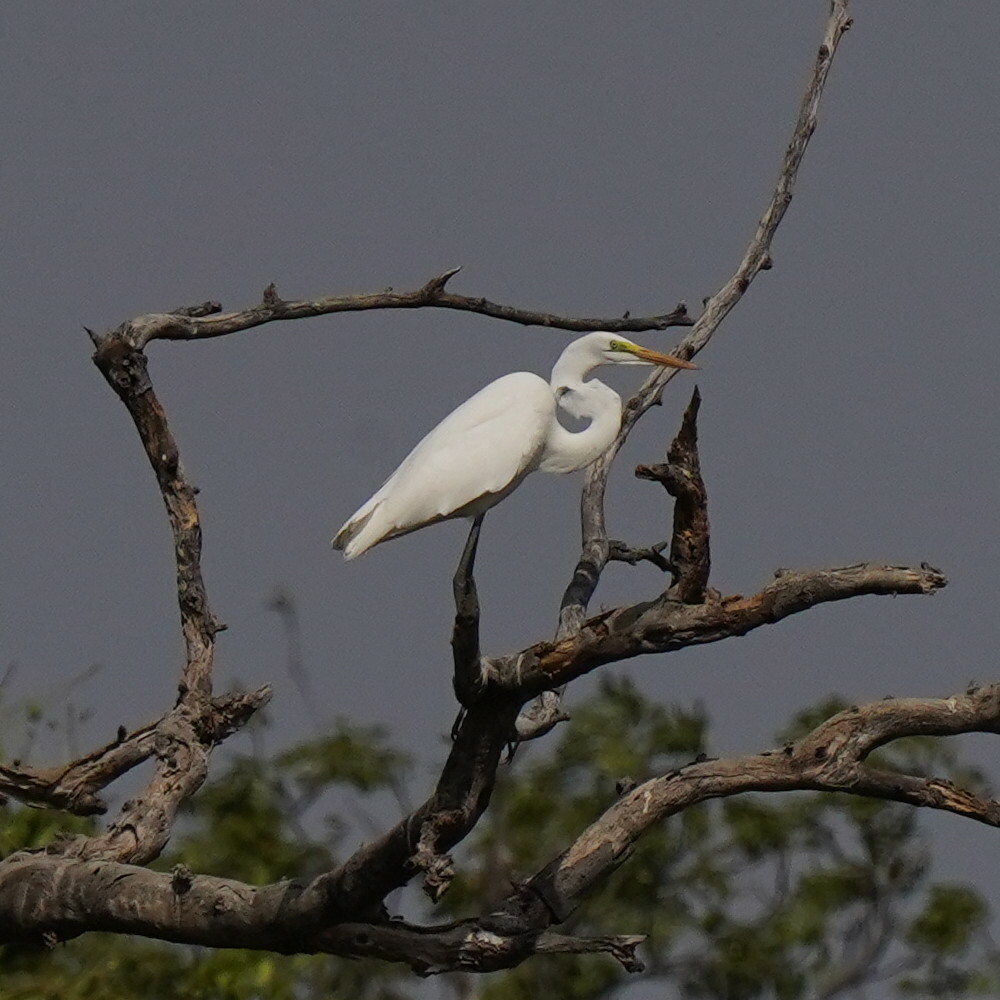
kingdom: Animalia
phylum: Chordata
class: Aves
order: Pelecaniformes
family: Ardeidae
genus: Ardea
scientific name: Ardea alba
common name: Great egret
